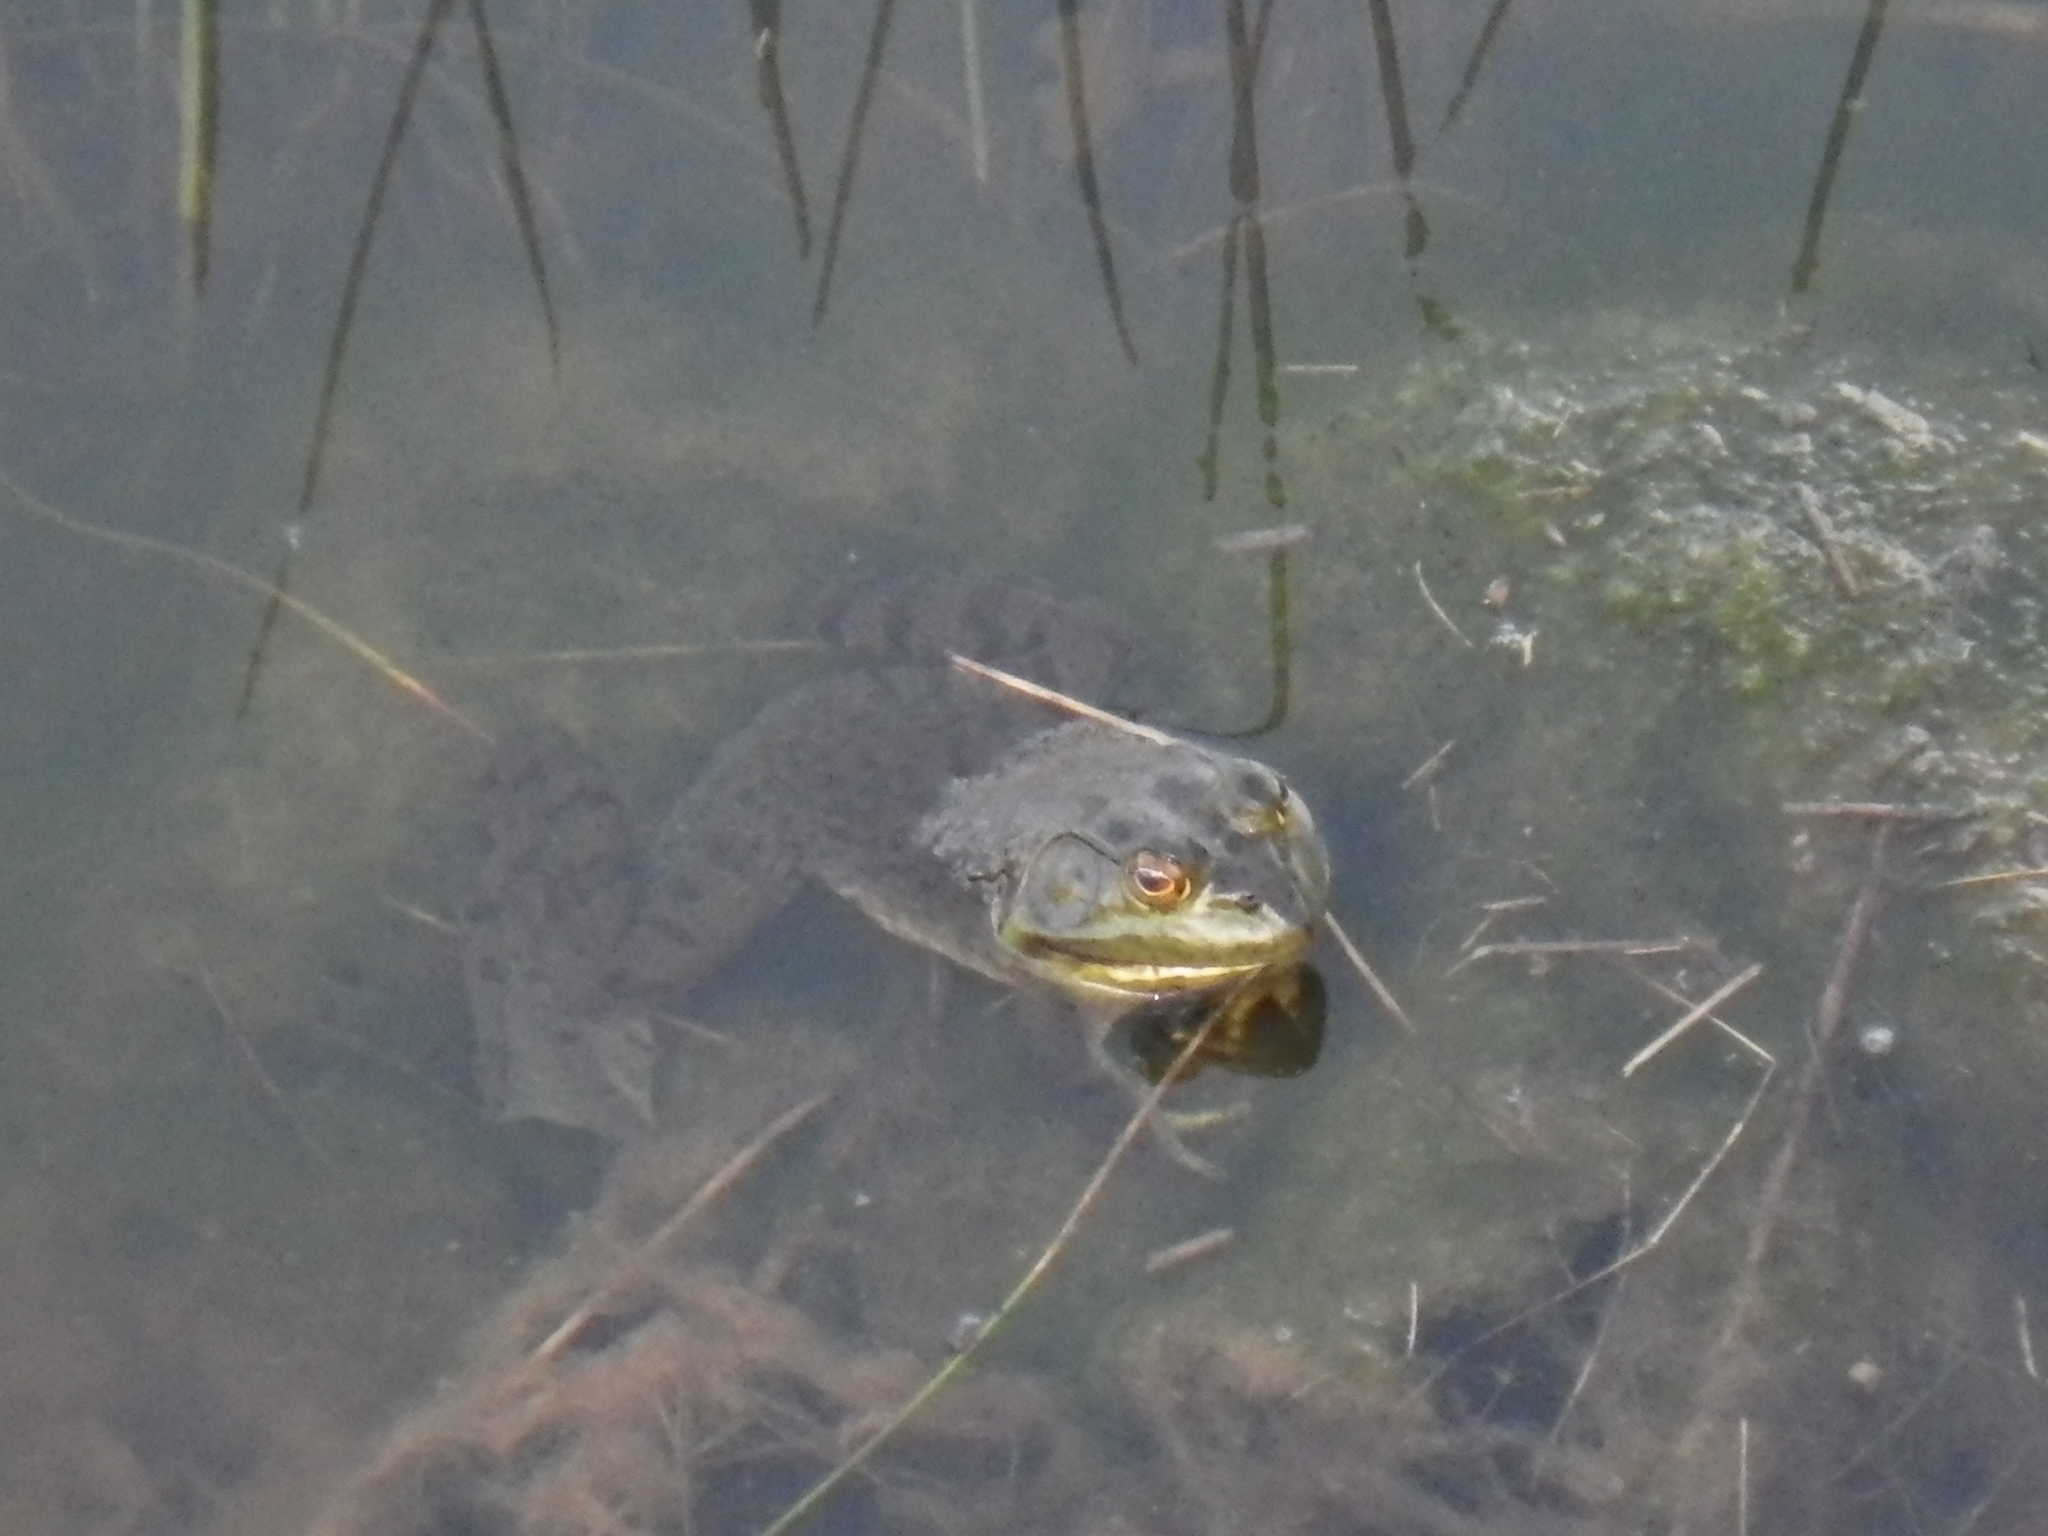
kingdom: Animalia
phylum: Chordata
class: Amphibia
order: Anura
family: Ranidae
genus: Lithobates
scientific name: Lithobates catesbeianus
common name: American bullfrog
